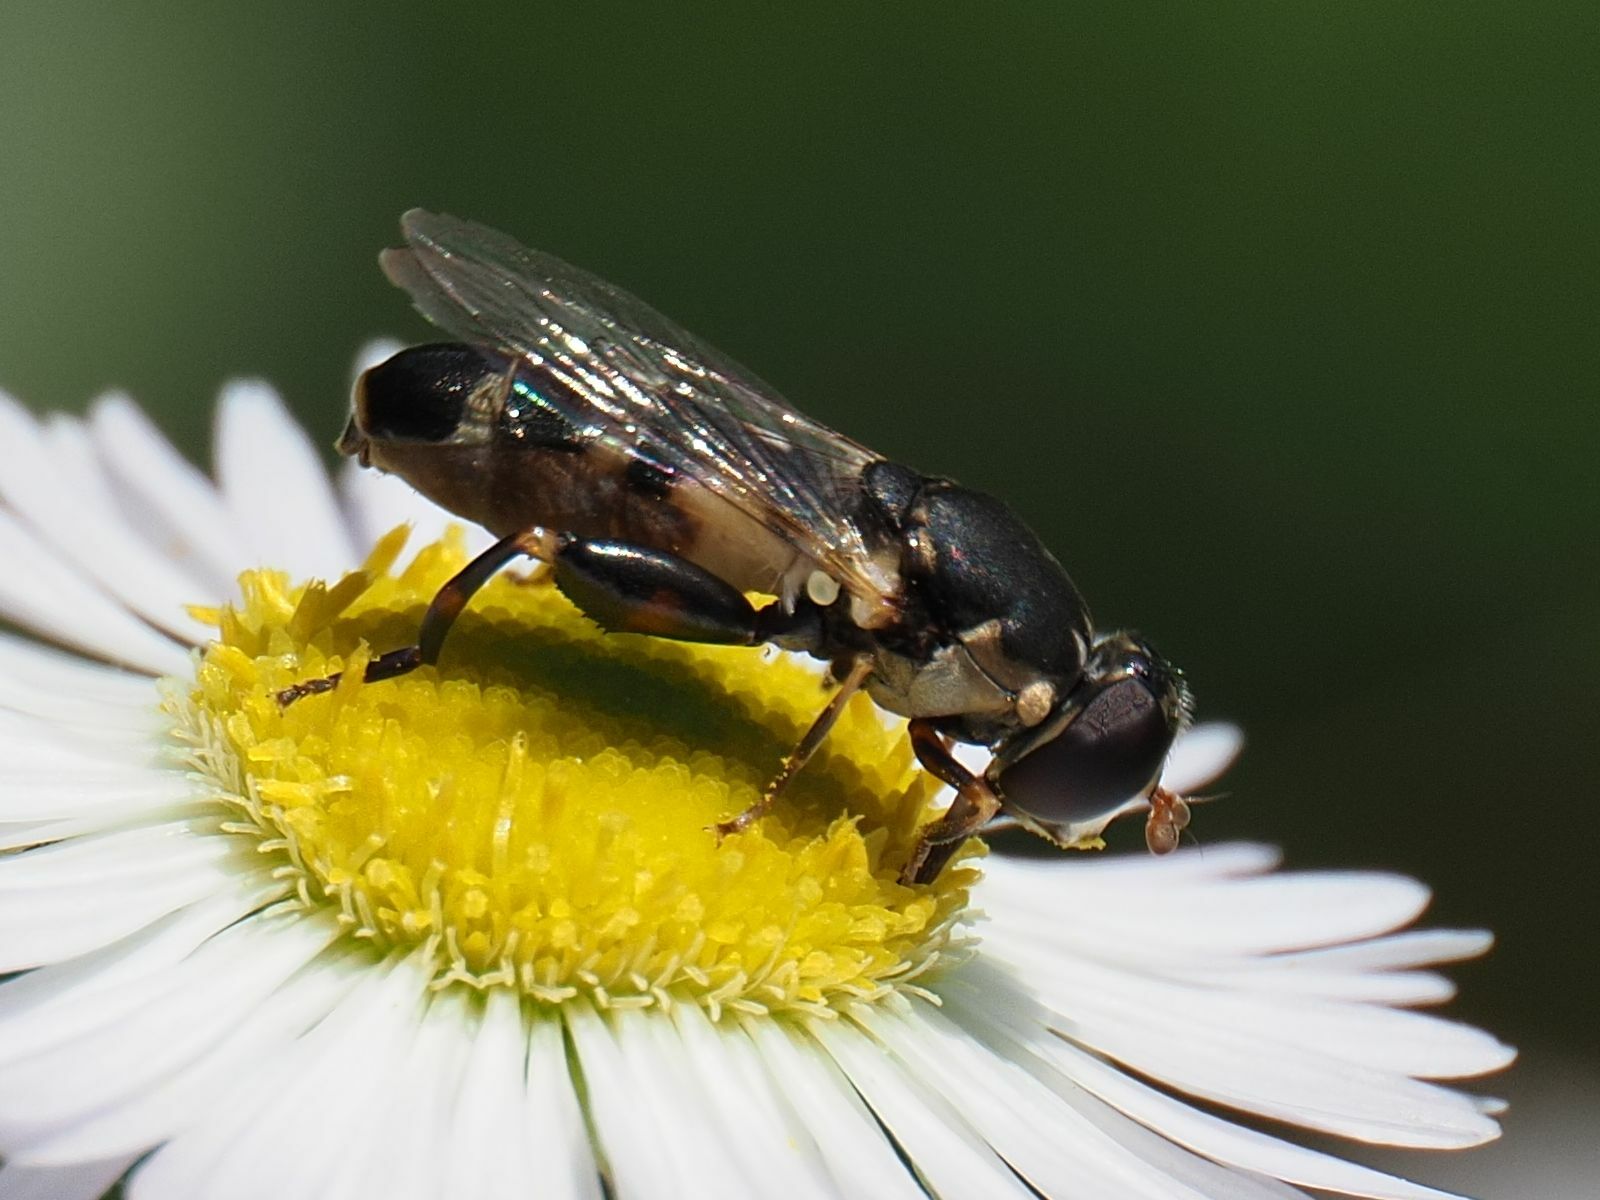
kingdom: Animalia
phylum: Arthropoda
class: Insecta
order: Diptera
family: Syrphidae
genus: Syritta
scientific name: Syritta pipiens
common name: Hover fly
